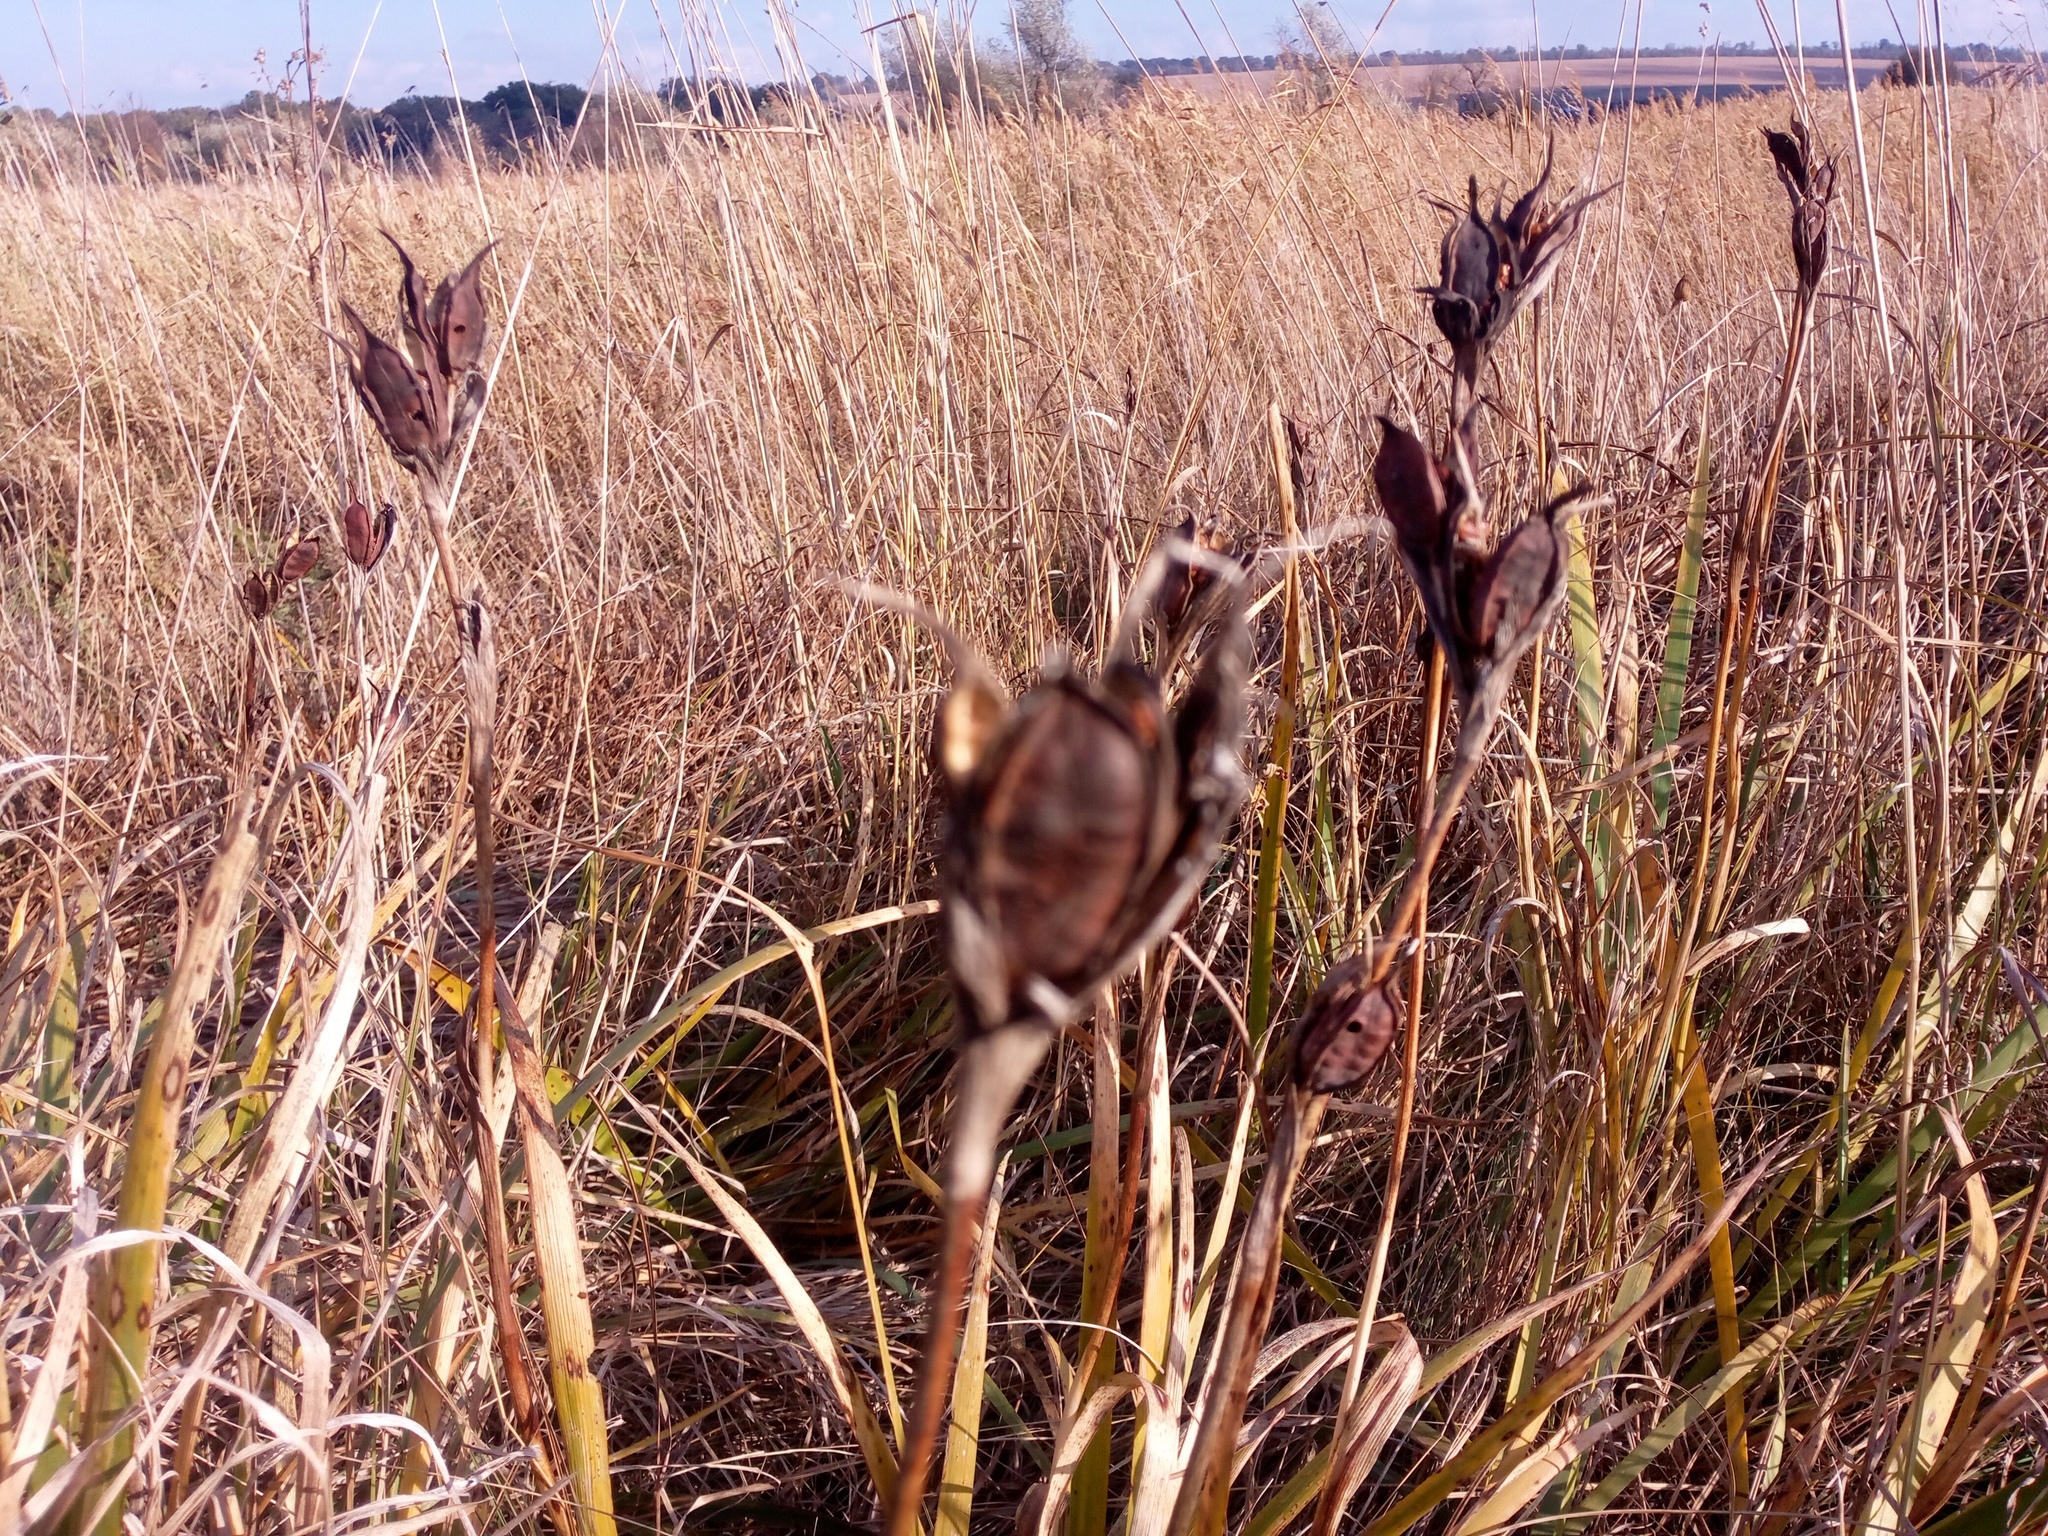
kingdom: Plantae
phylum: Tracheophyta
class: Liliopsida
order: Asparagales
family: Iridaceae
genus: Iris
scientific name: Iris halophila
